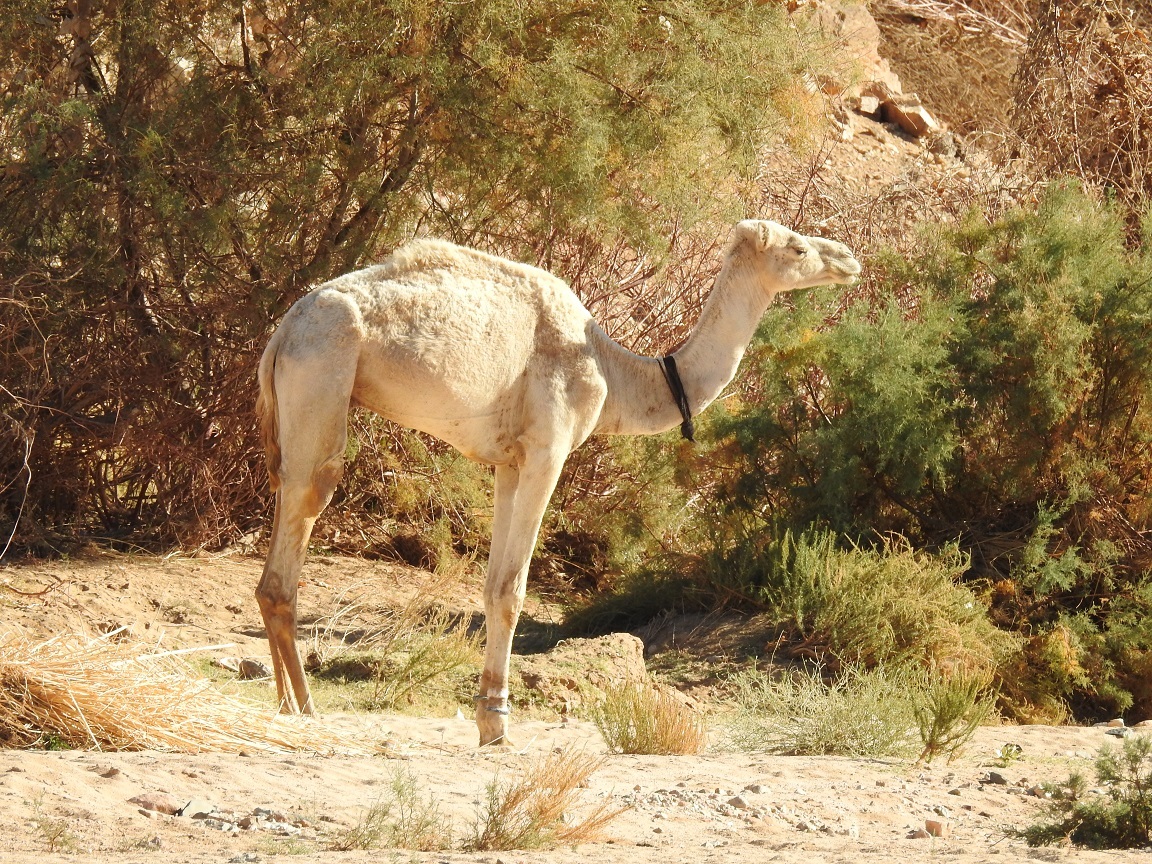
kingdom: Animalia
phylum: Chordata
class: Mammalia
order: Artiodactyla
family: Camelidae
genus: Camelus
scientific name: Camelus dromedarius
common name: One-humped camel
